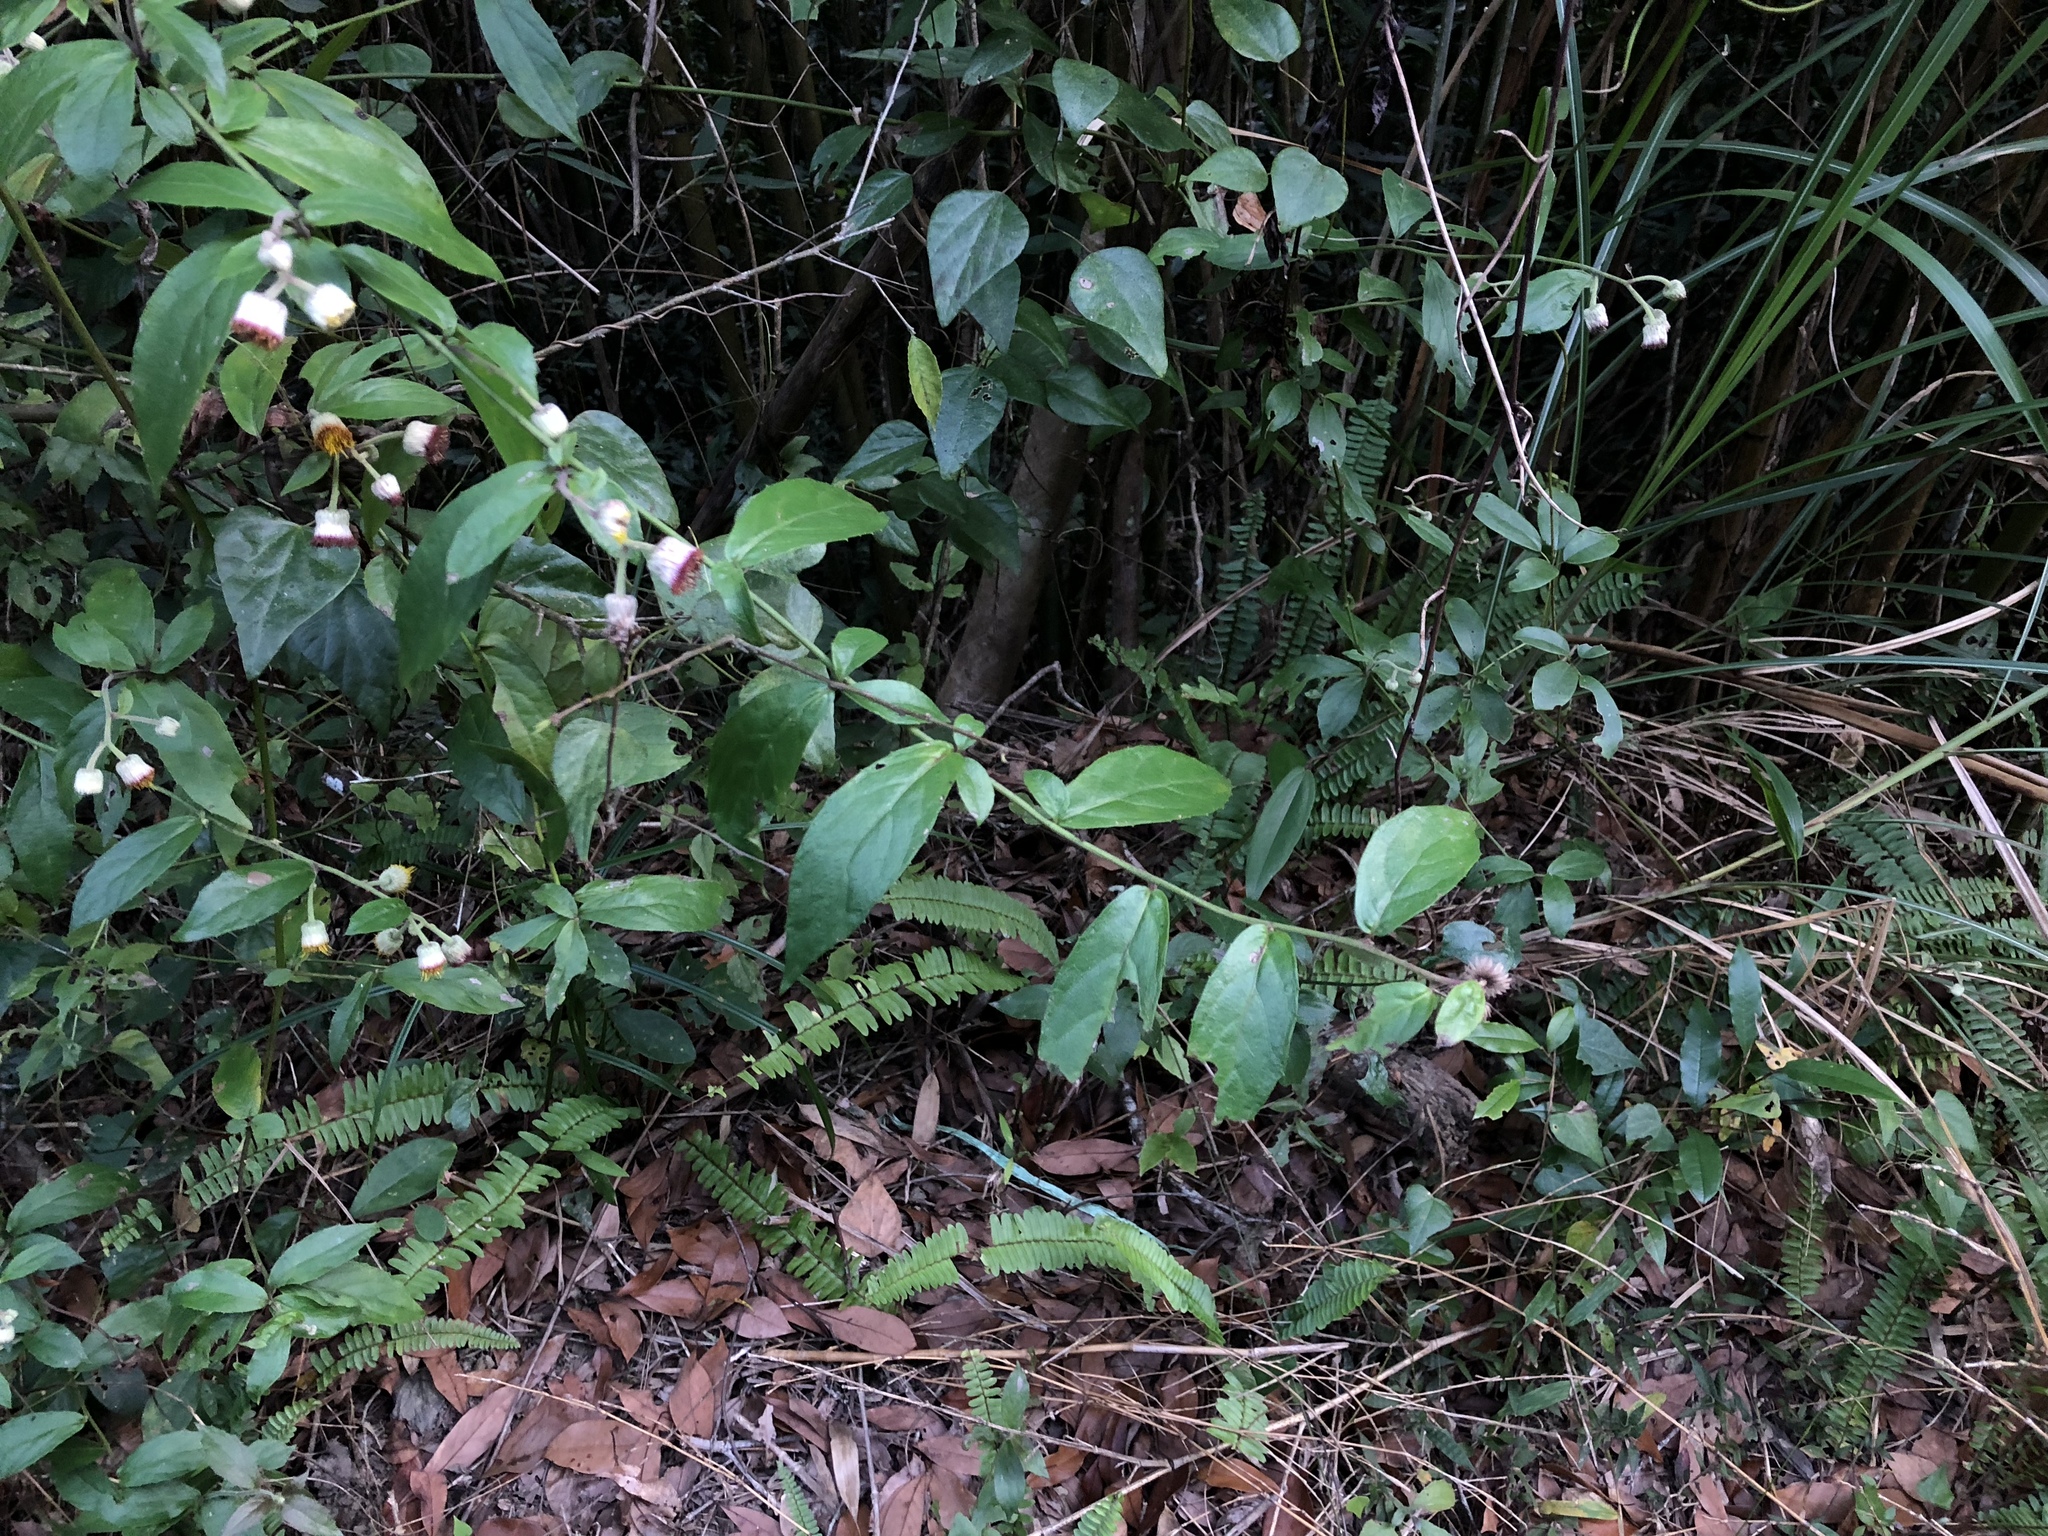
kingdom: Plantae
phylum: Tracheophyta
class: Magnoliopsida
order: Asterales
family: Asteraceae
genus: Blumea
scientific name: Blumea megacephala
